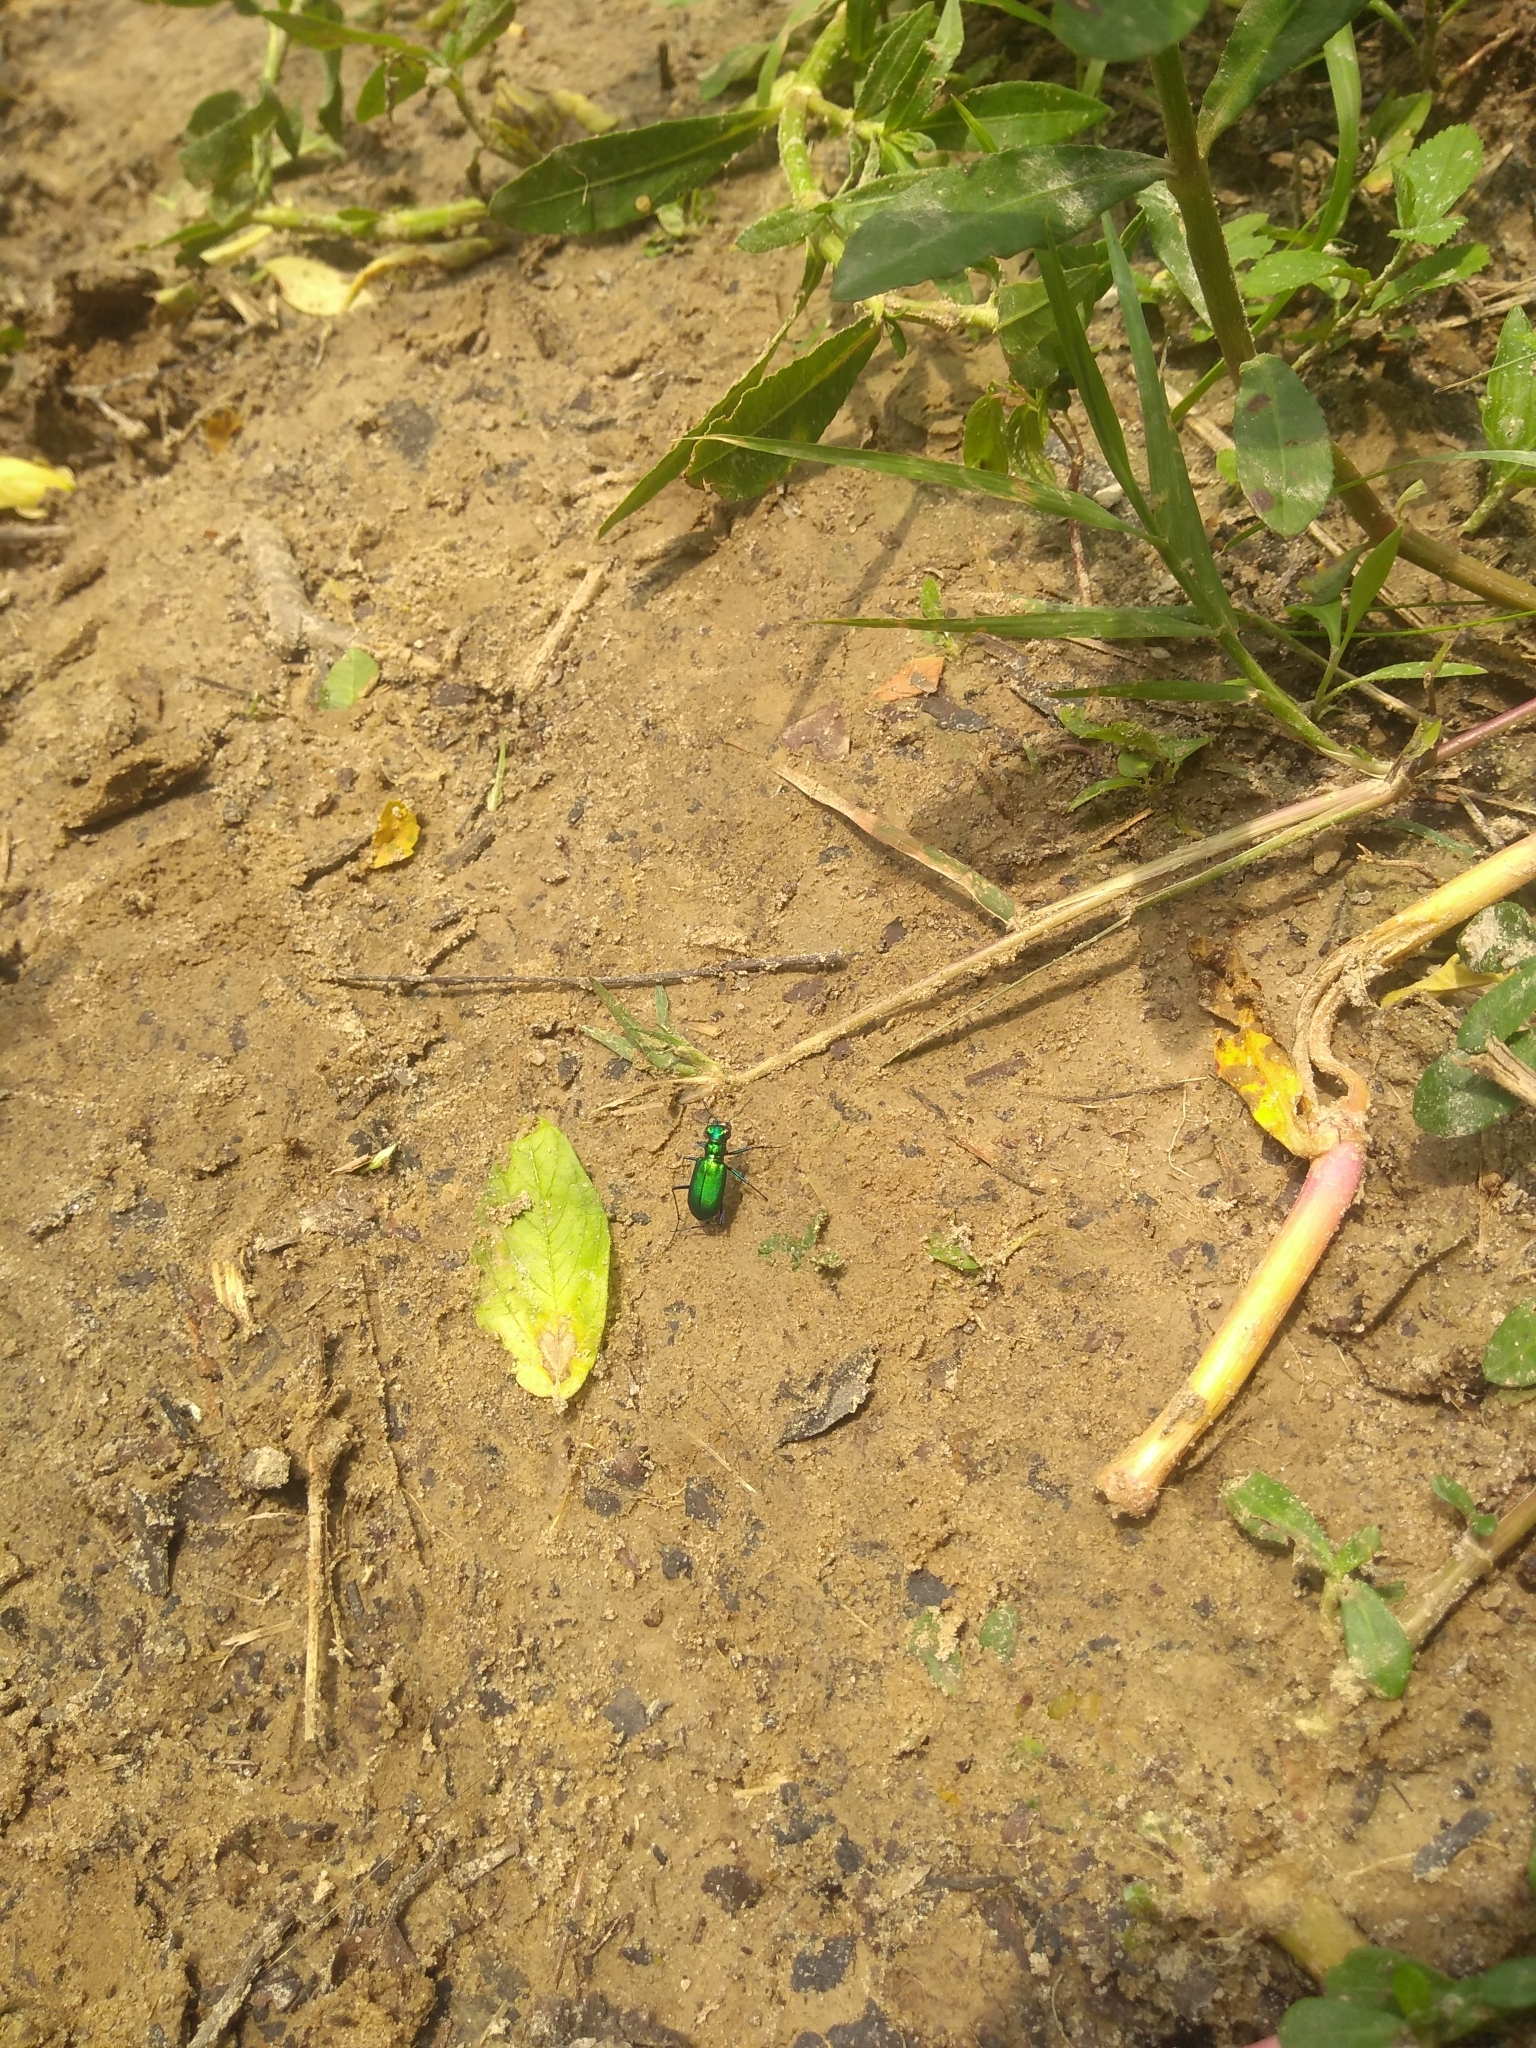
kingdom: Animalia
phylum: Arthropoda
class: Insecta
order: Coleoptera
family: Carabidae
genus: Cicindela
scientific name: Cicindela sexguttata
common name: Six-spotted tiger beetle
